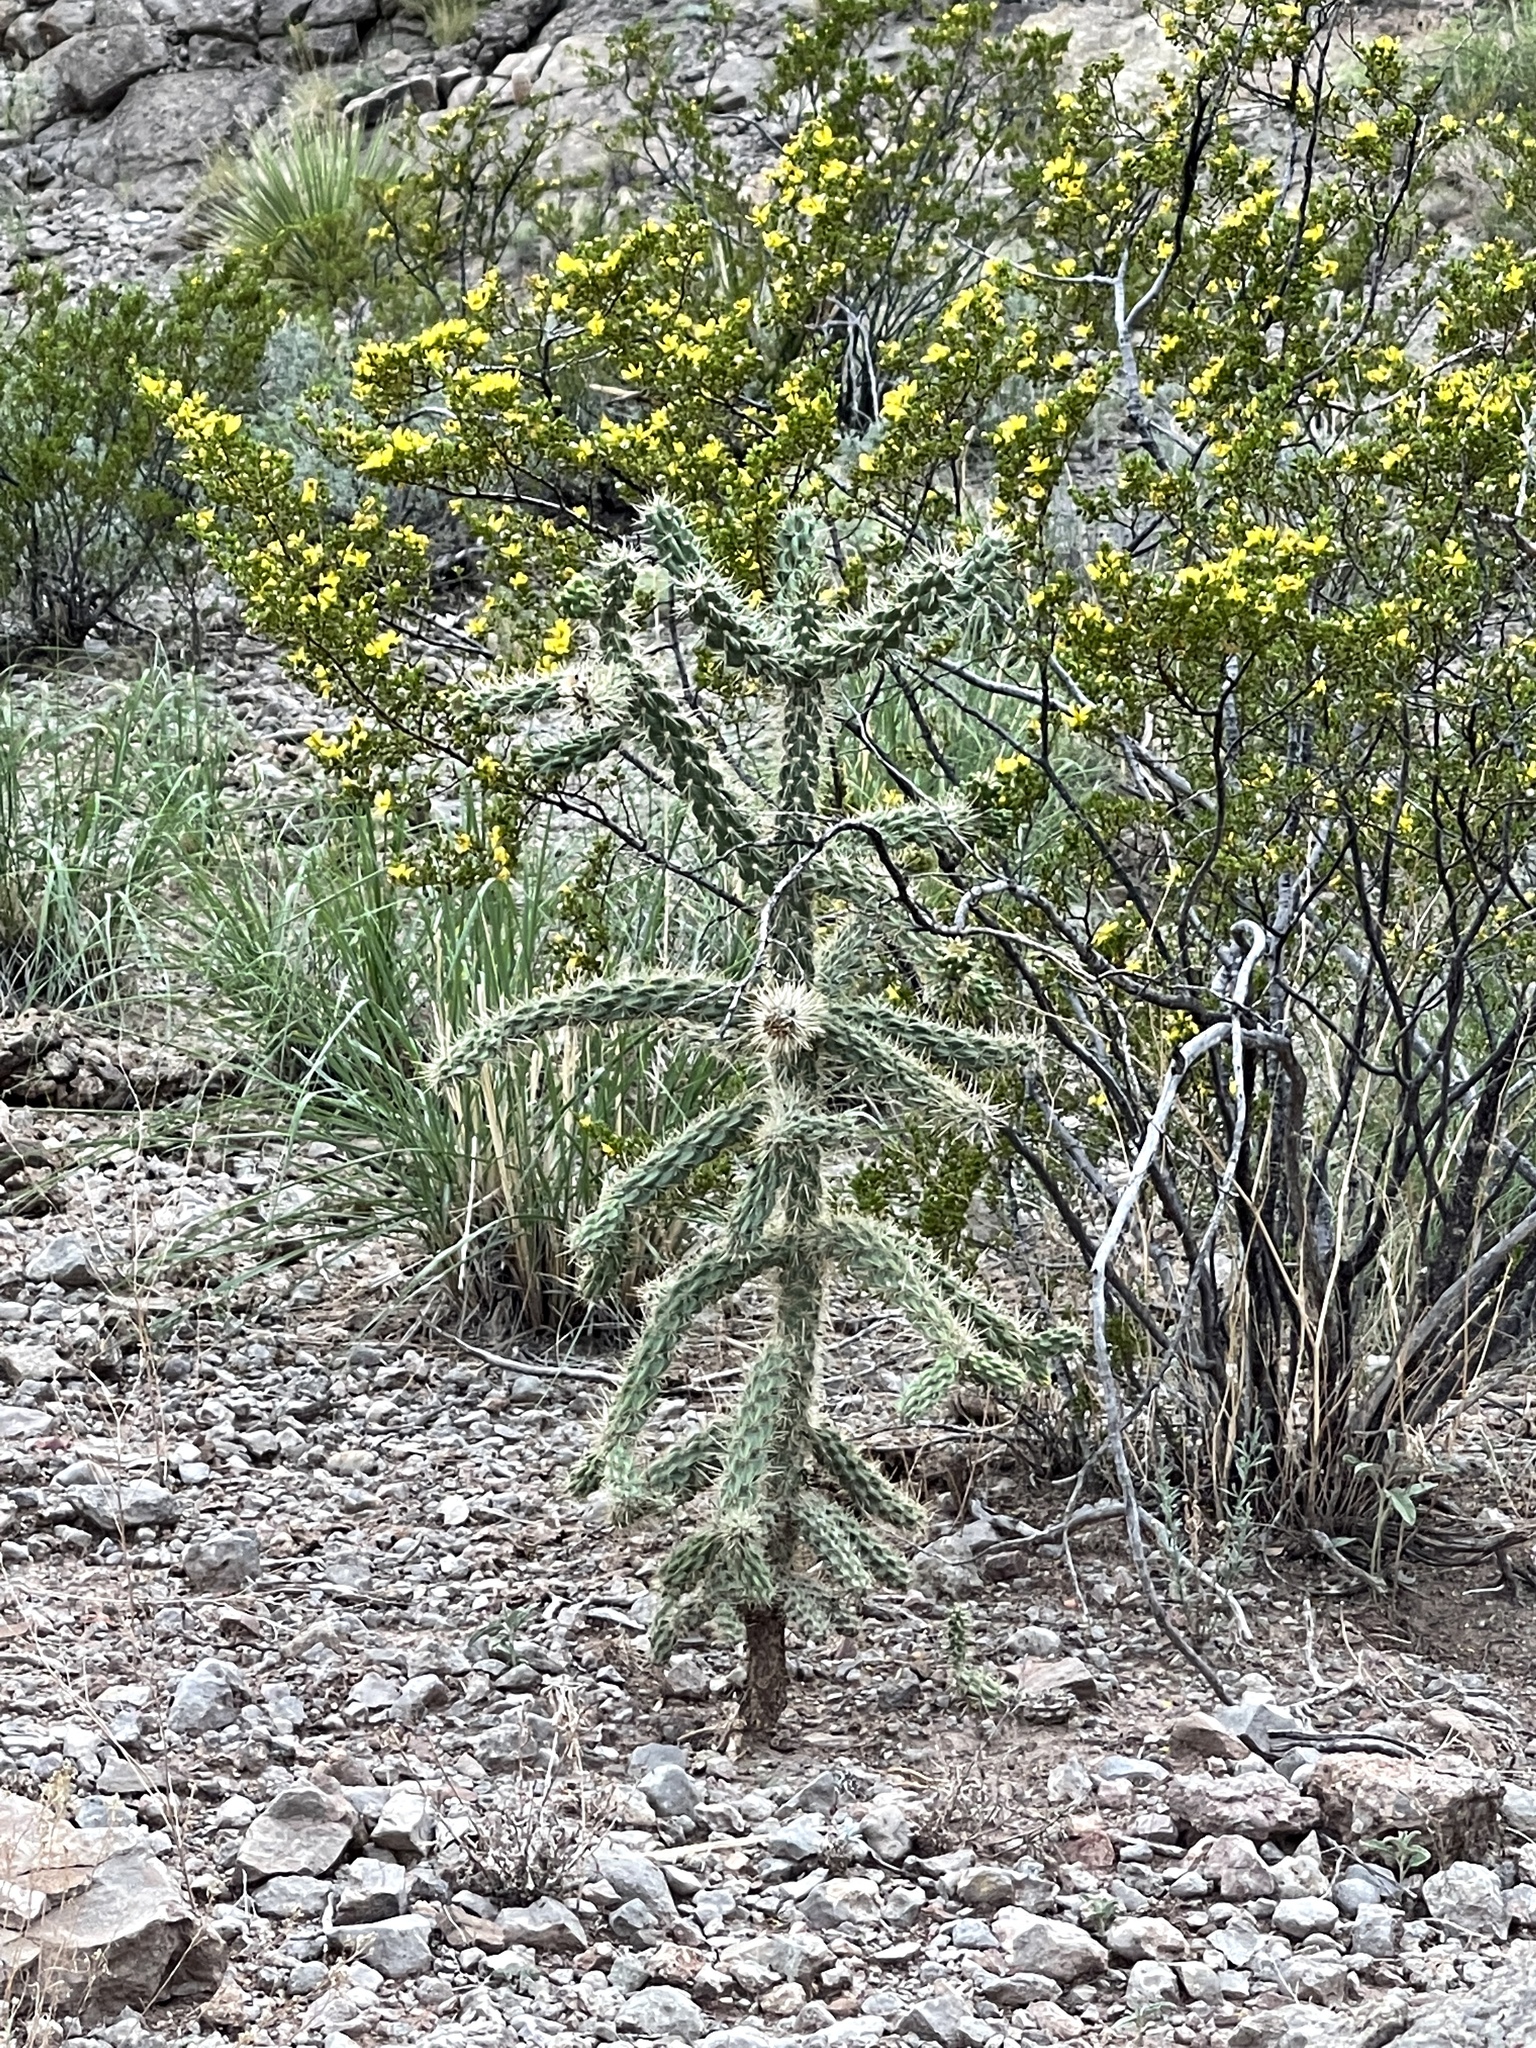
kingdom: Plantae
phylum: Tracheophyta
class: Magnoliopsida
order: Caryophyllales
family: Cactaceae
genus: Cylindropuntia
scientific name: Cylindropuntia imbricata
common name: Candelabrum cactus
